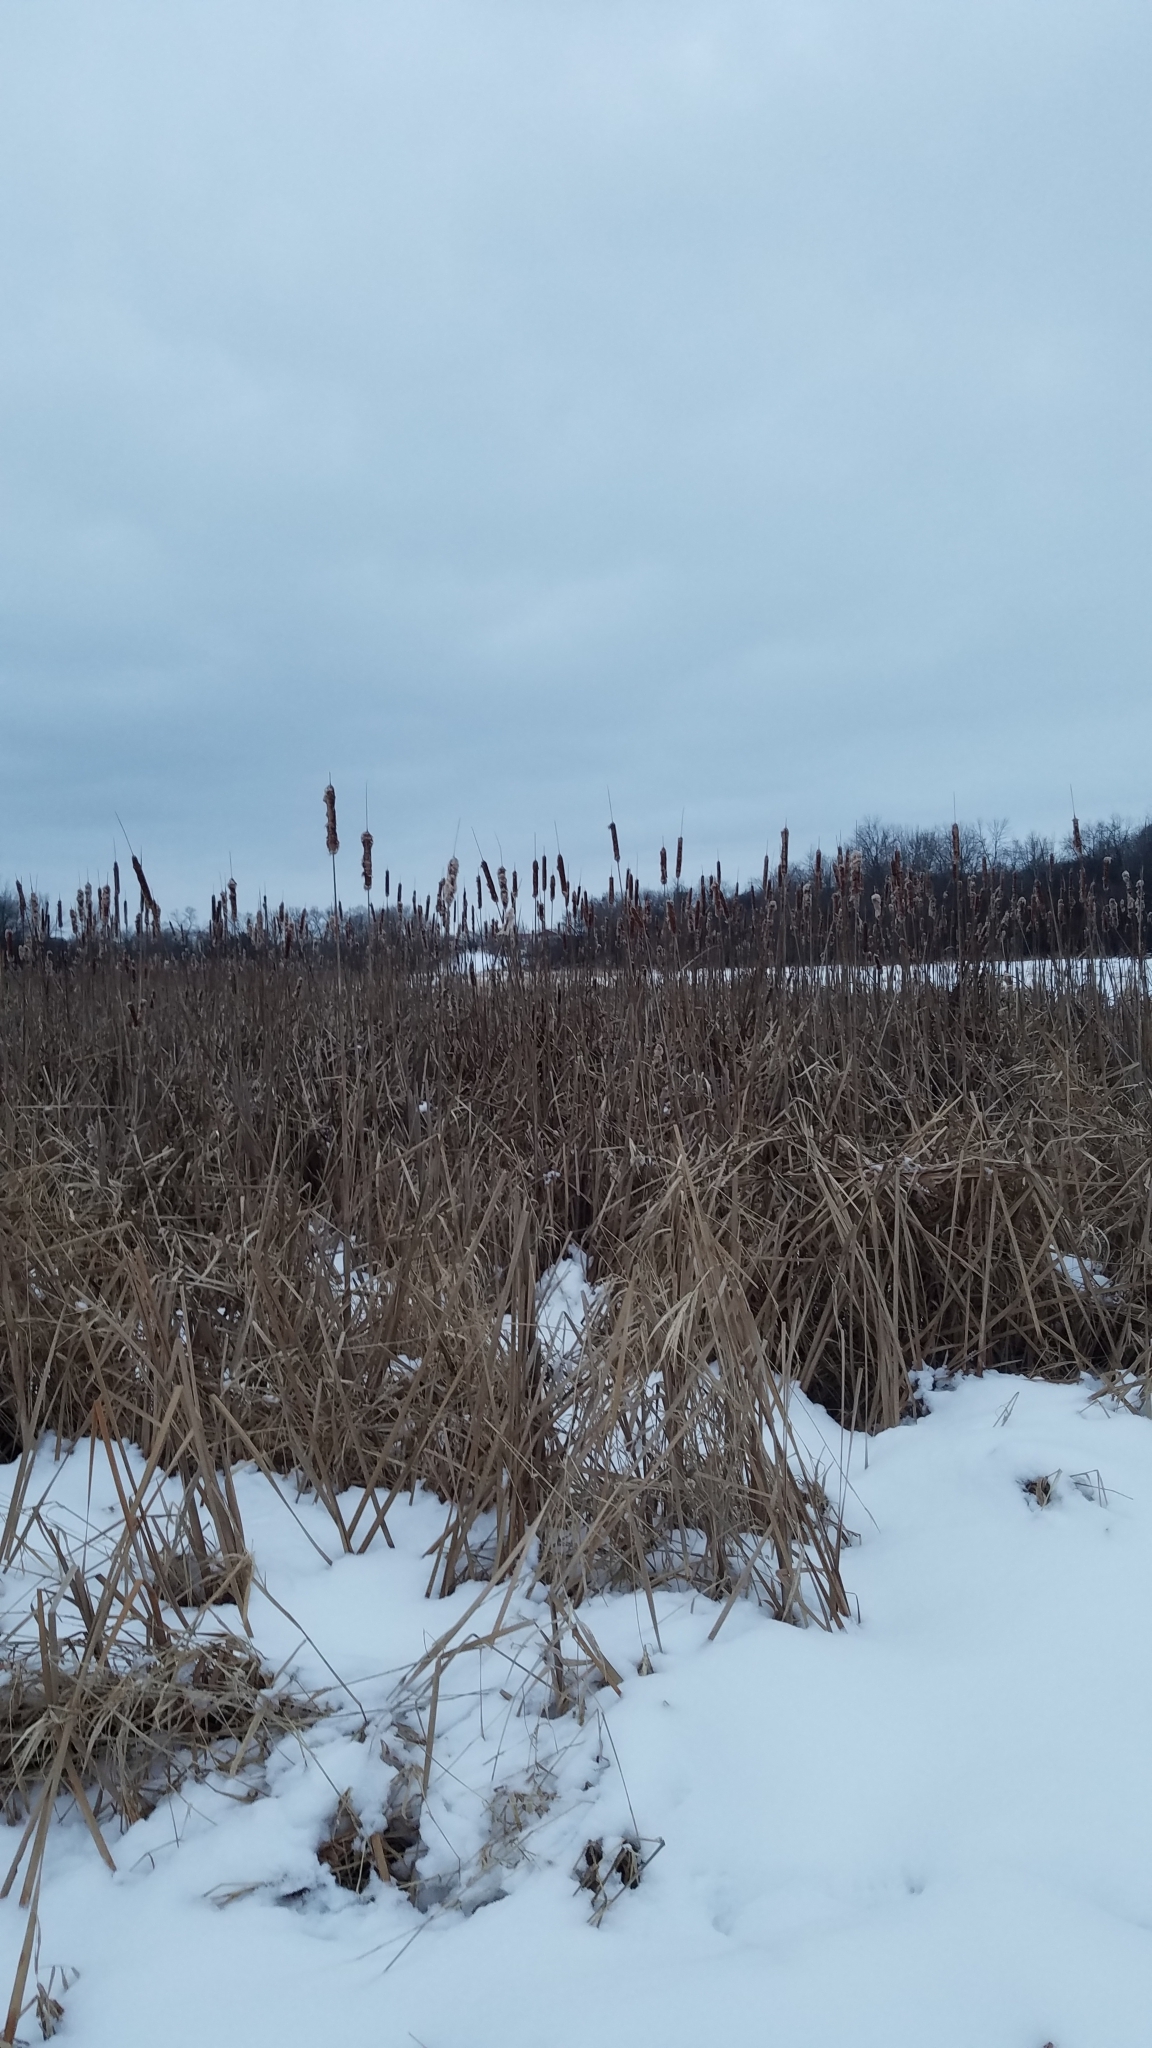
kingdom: Plantae
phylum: Tracheophyta
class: Liliopsida
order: Poales
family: Typhaceae
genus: Typha
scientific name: Typha angustifolia
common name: Lesser bulrush
